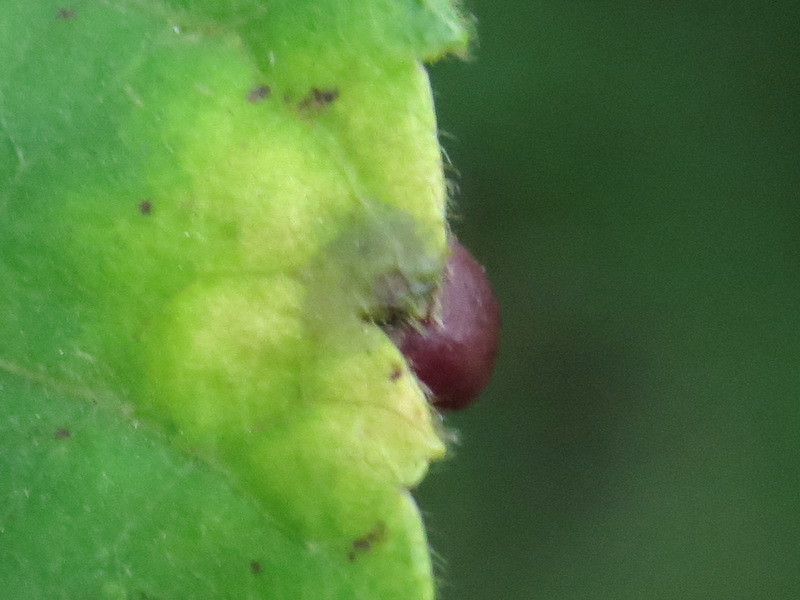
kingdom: Animalia
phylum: Arthropoda
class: Insecta
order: Diptera
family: Cecidomyiidae
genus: Caryomyia
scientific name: Caryomyia deflexipili
